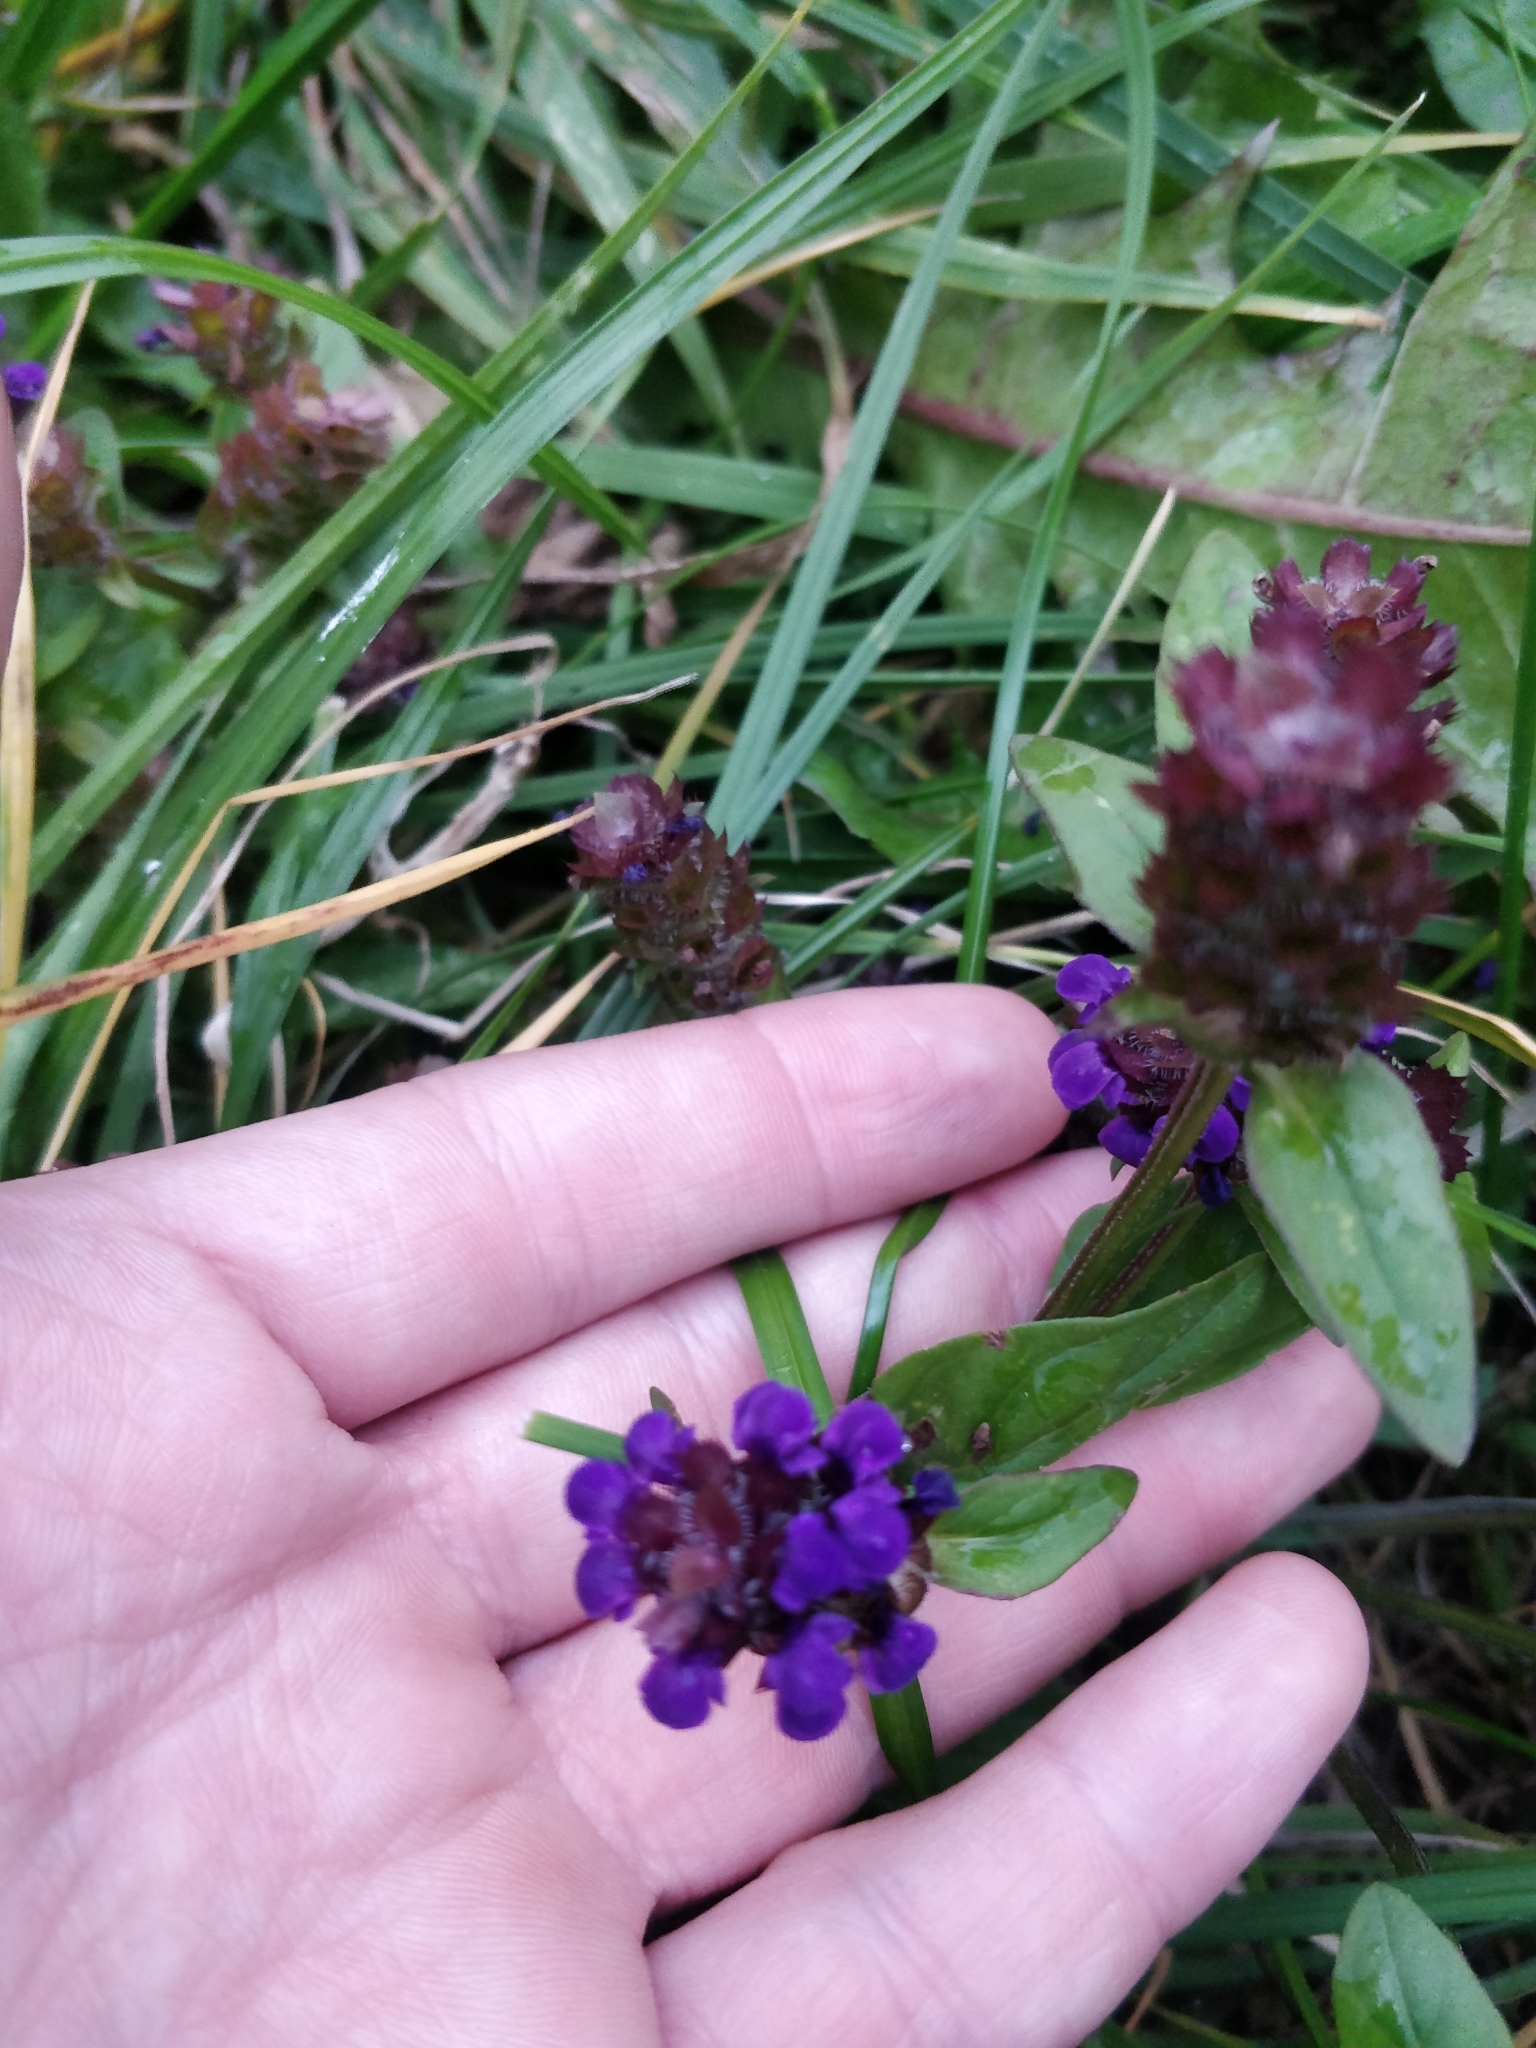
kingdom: Plantae
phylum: Tracheophyta
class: Magnoliopsida
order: Lamiales
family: Lamiaceae
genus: Prunella
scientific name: Prunella vulgaris
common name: Heal-all
